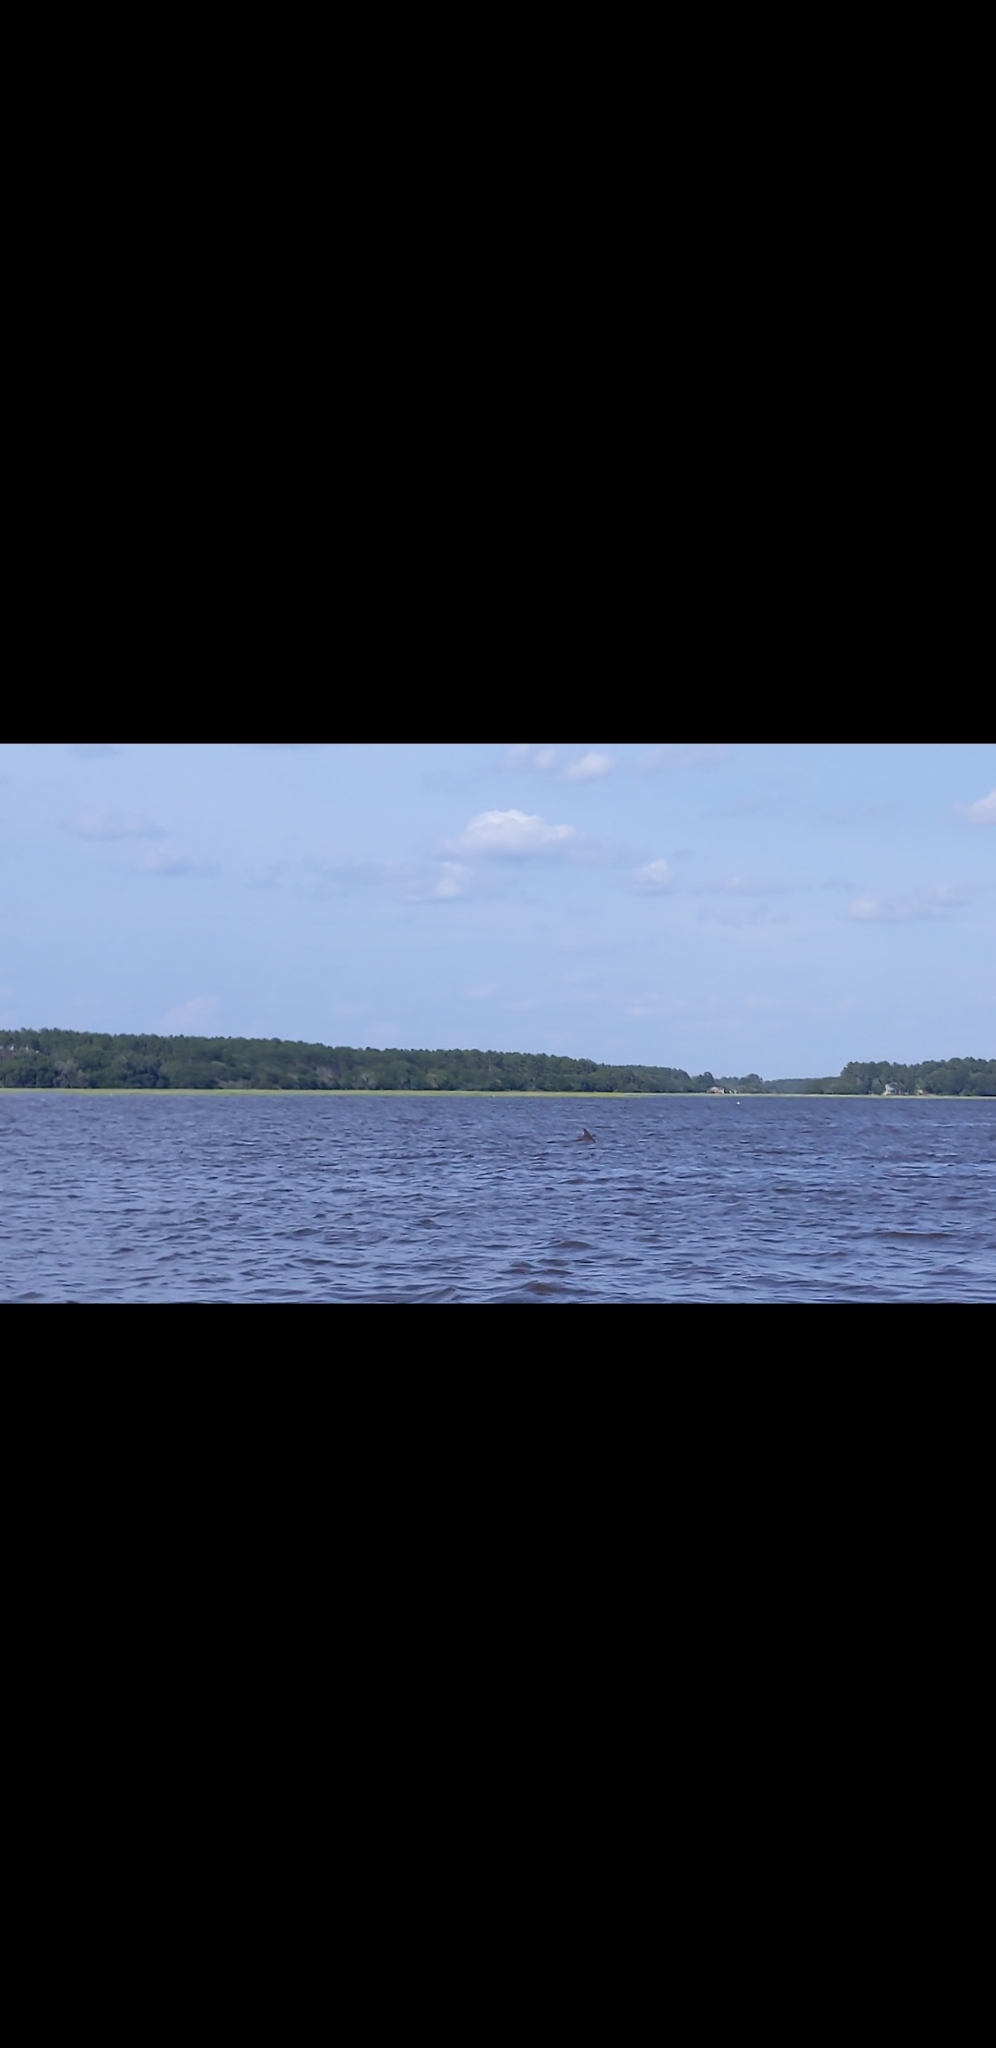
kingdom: Animalia
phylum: Chordata
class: Mammalia
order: Cetacea
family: Delphinidae
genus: Tursiops
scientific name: Tursiops truncatus
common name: Bottlenose dolphin
